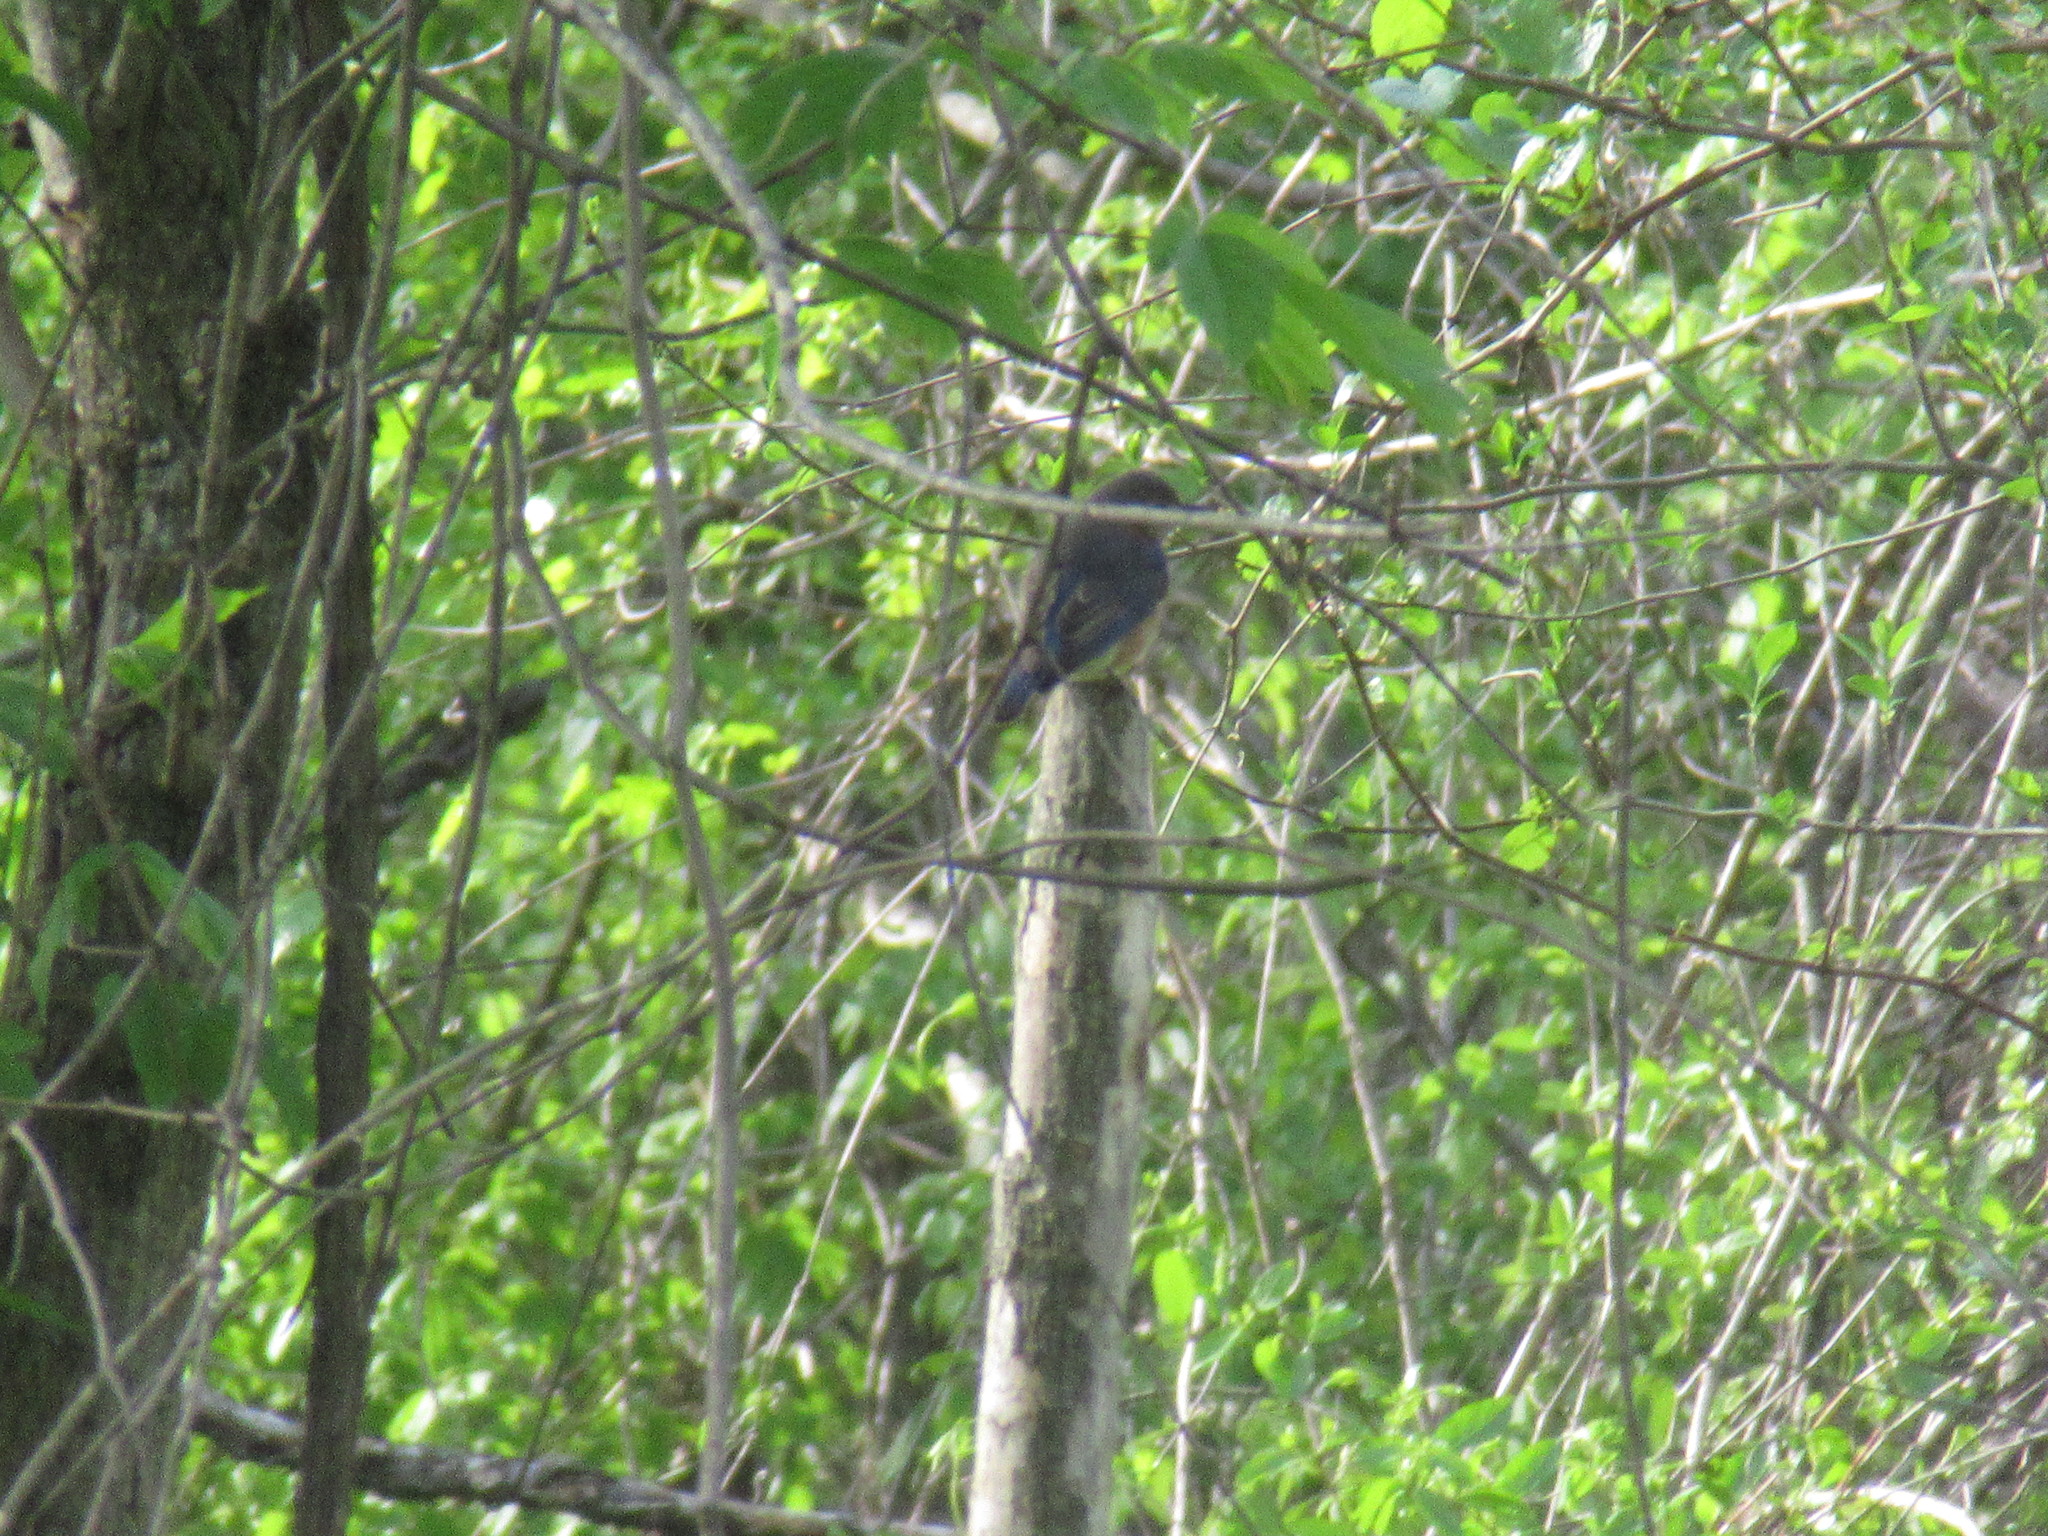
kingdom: Animalia
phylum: Chordata
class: Aves
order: Passeriformes
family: Turdidae
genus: Sialia
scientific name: Sialia sialis
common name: Eastern bluebird
